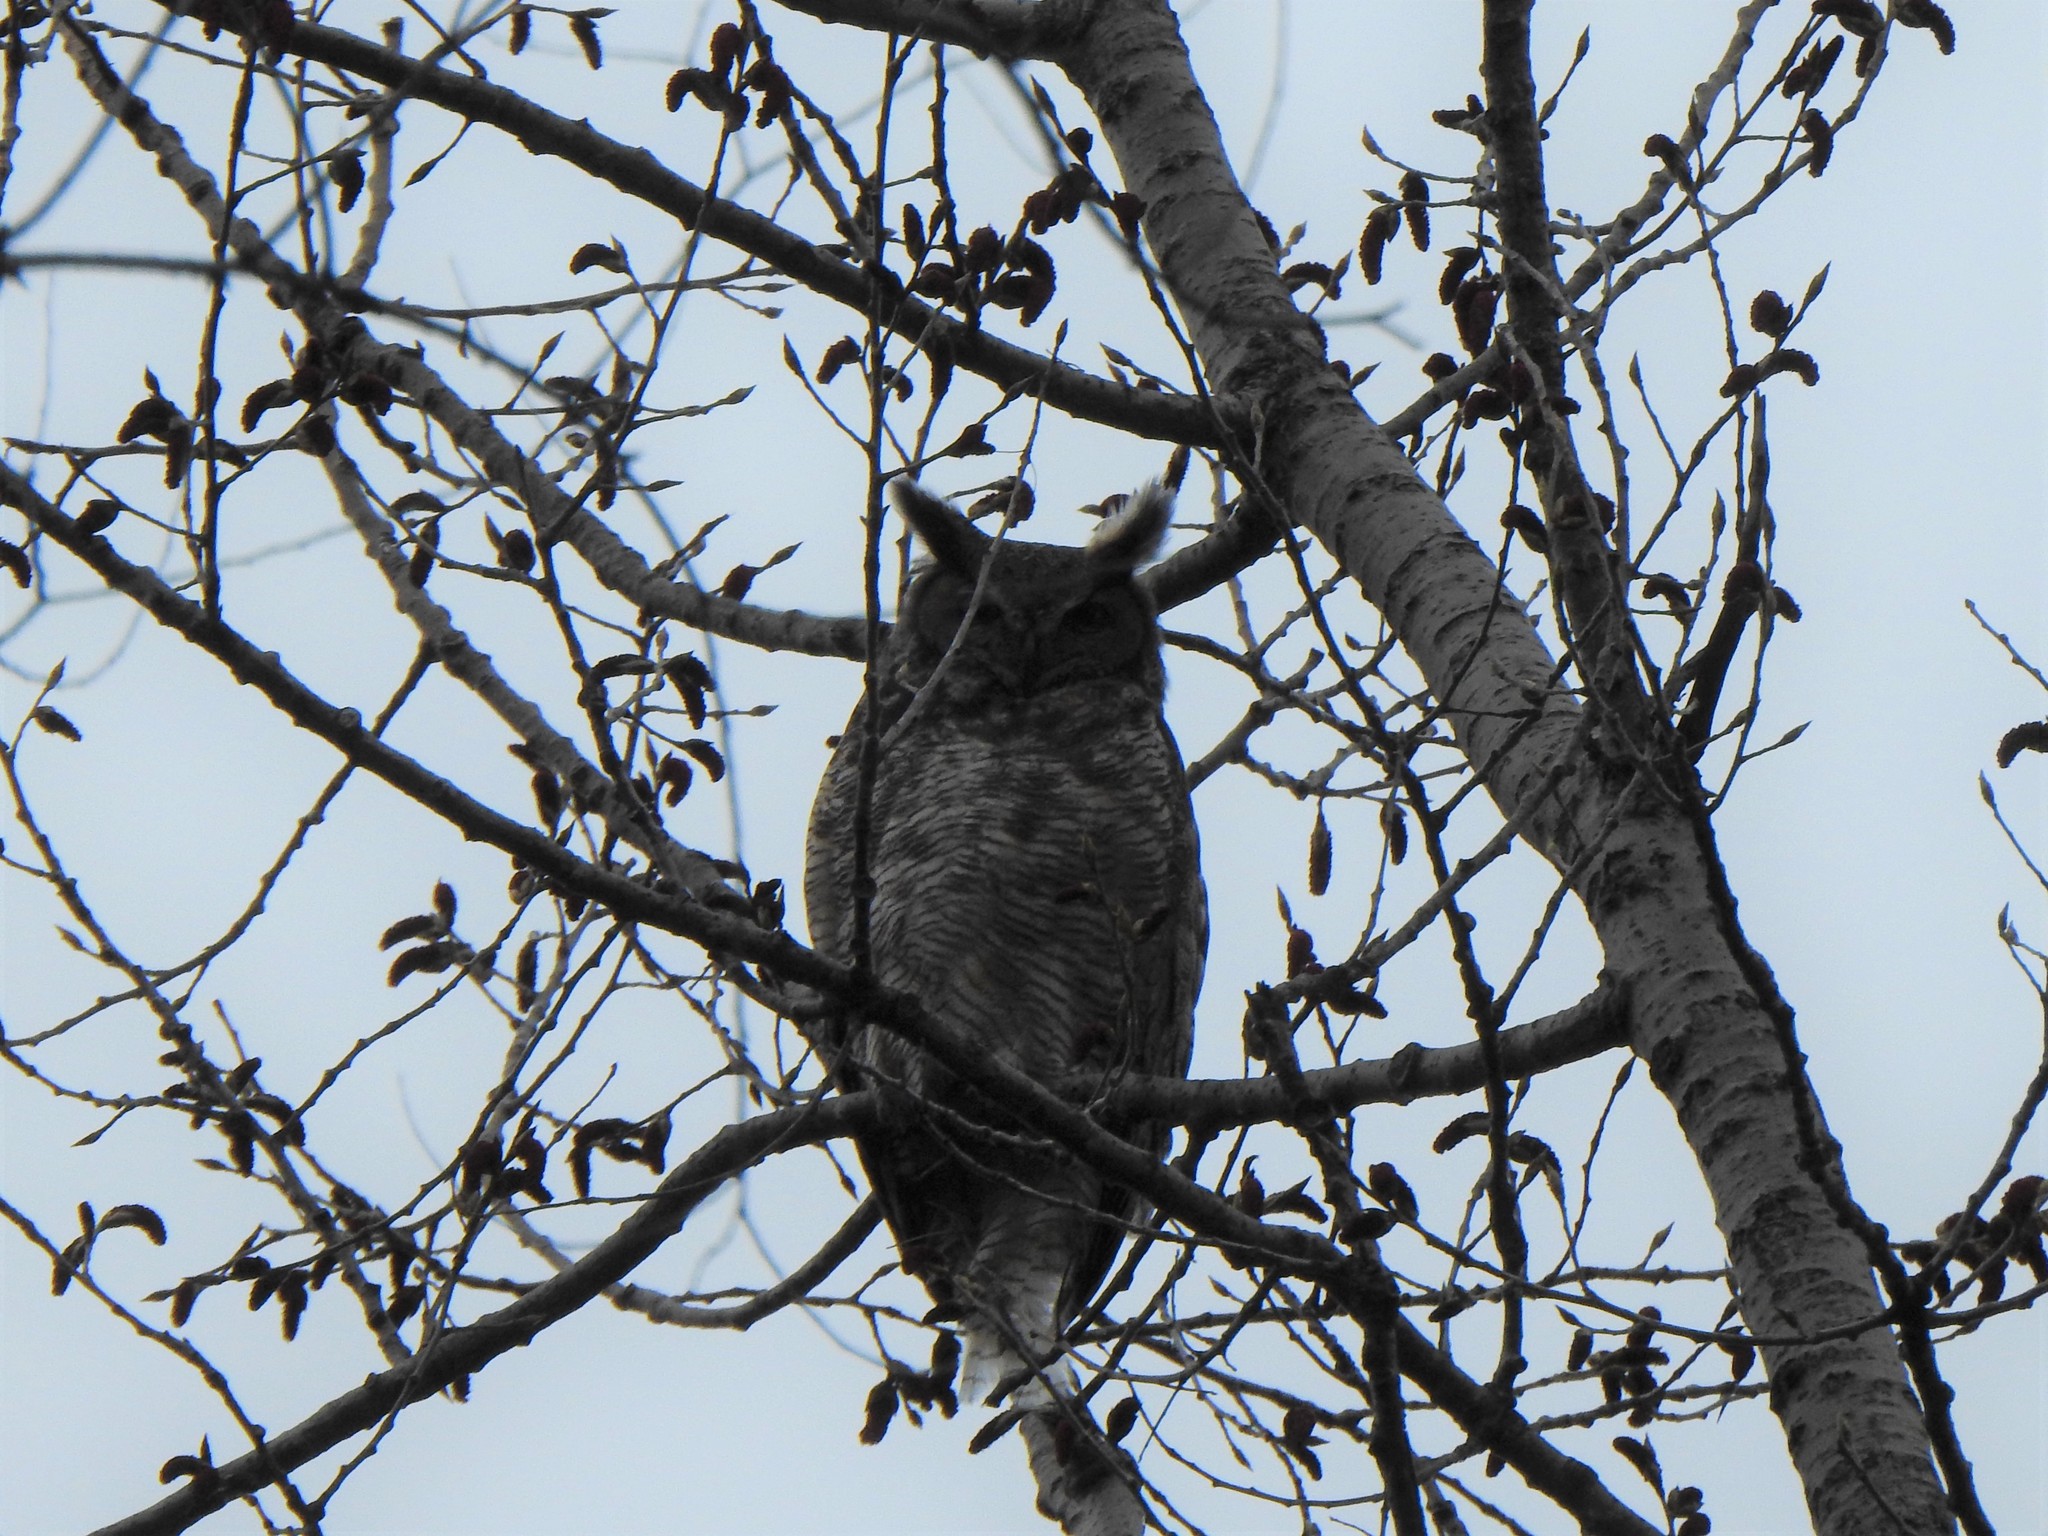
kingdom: Animalia
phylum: Chordata
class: Aves
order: Strigiformes
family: Strigidae
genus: Bubo
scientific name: Bubo virginianus
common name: Great horned owl
